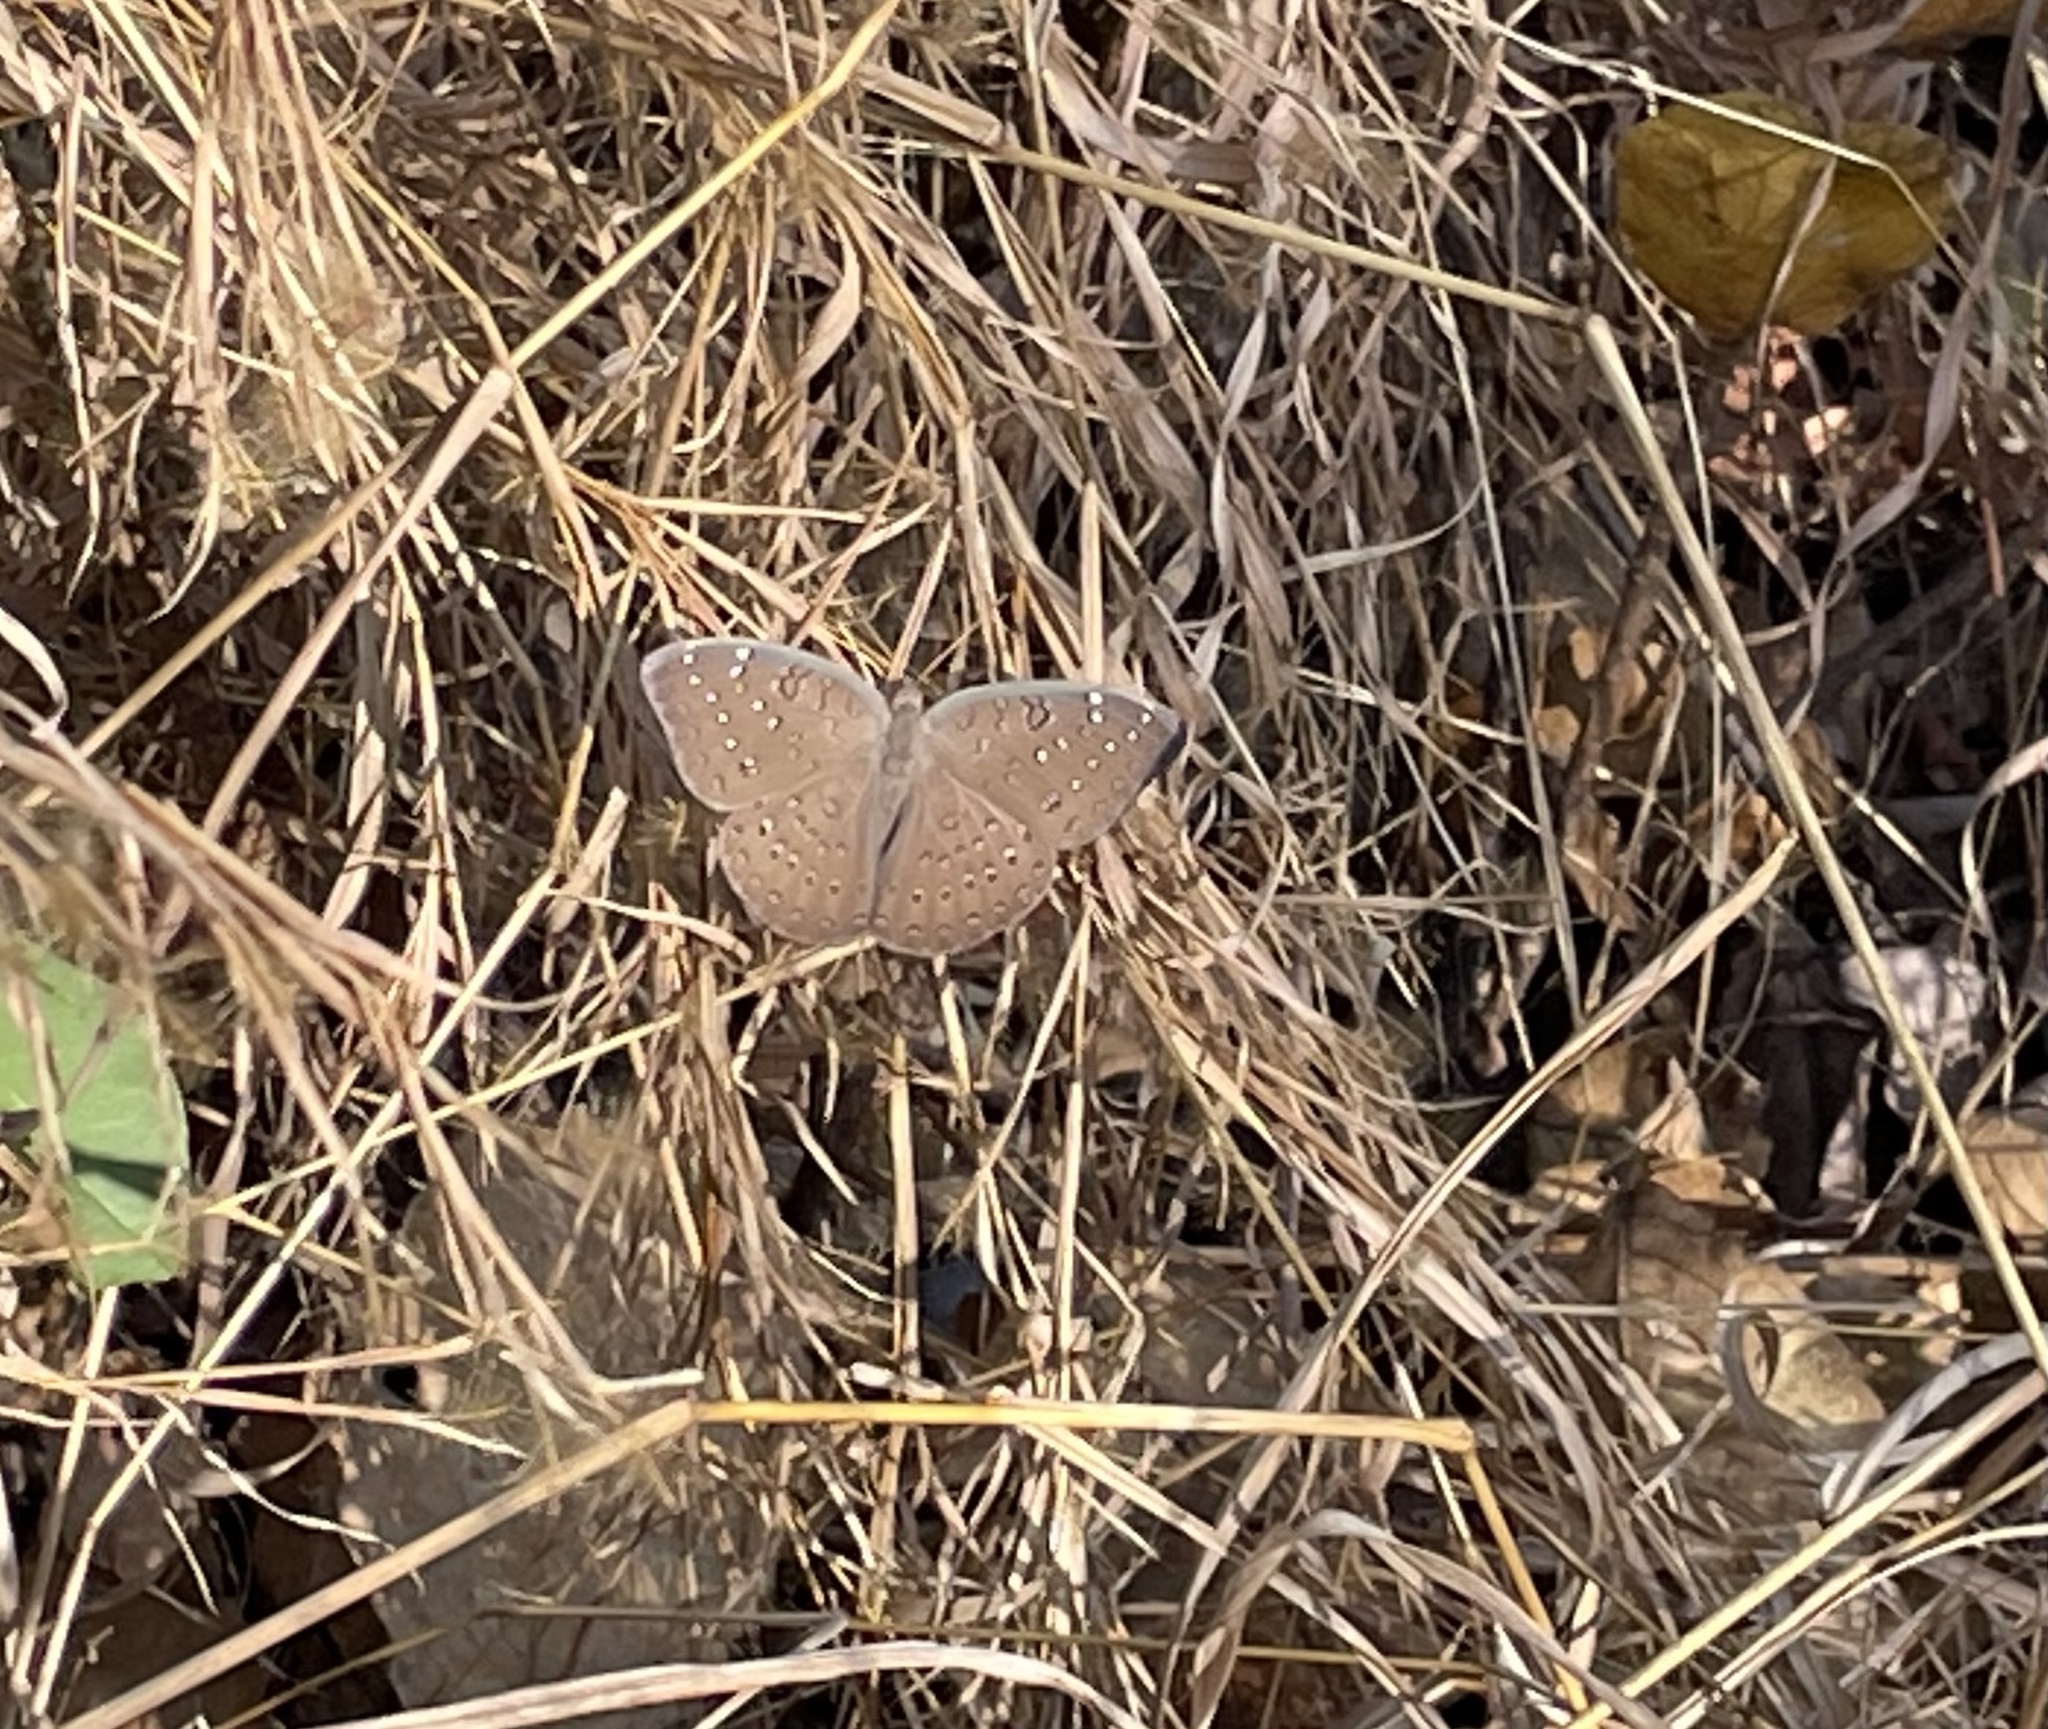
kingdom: Animalia
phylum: Arthropoda
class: Insecta
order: Lepidoptera
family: Nymphalidae
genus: Hamanumida
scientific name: Hamanumida daedalus
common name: Guinea-fowl butterfly
